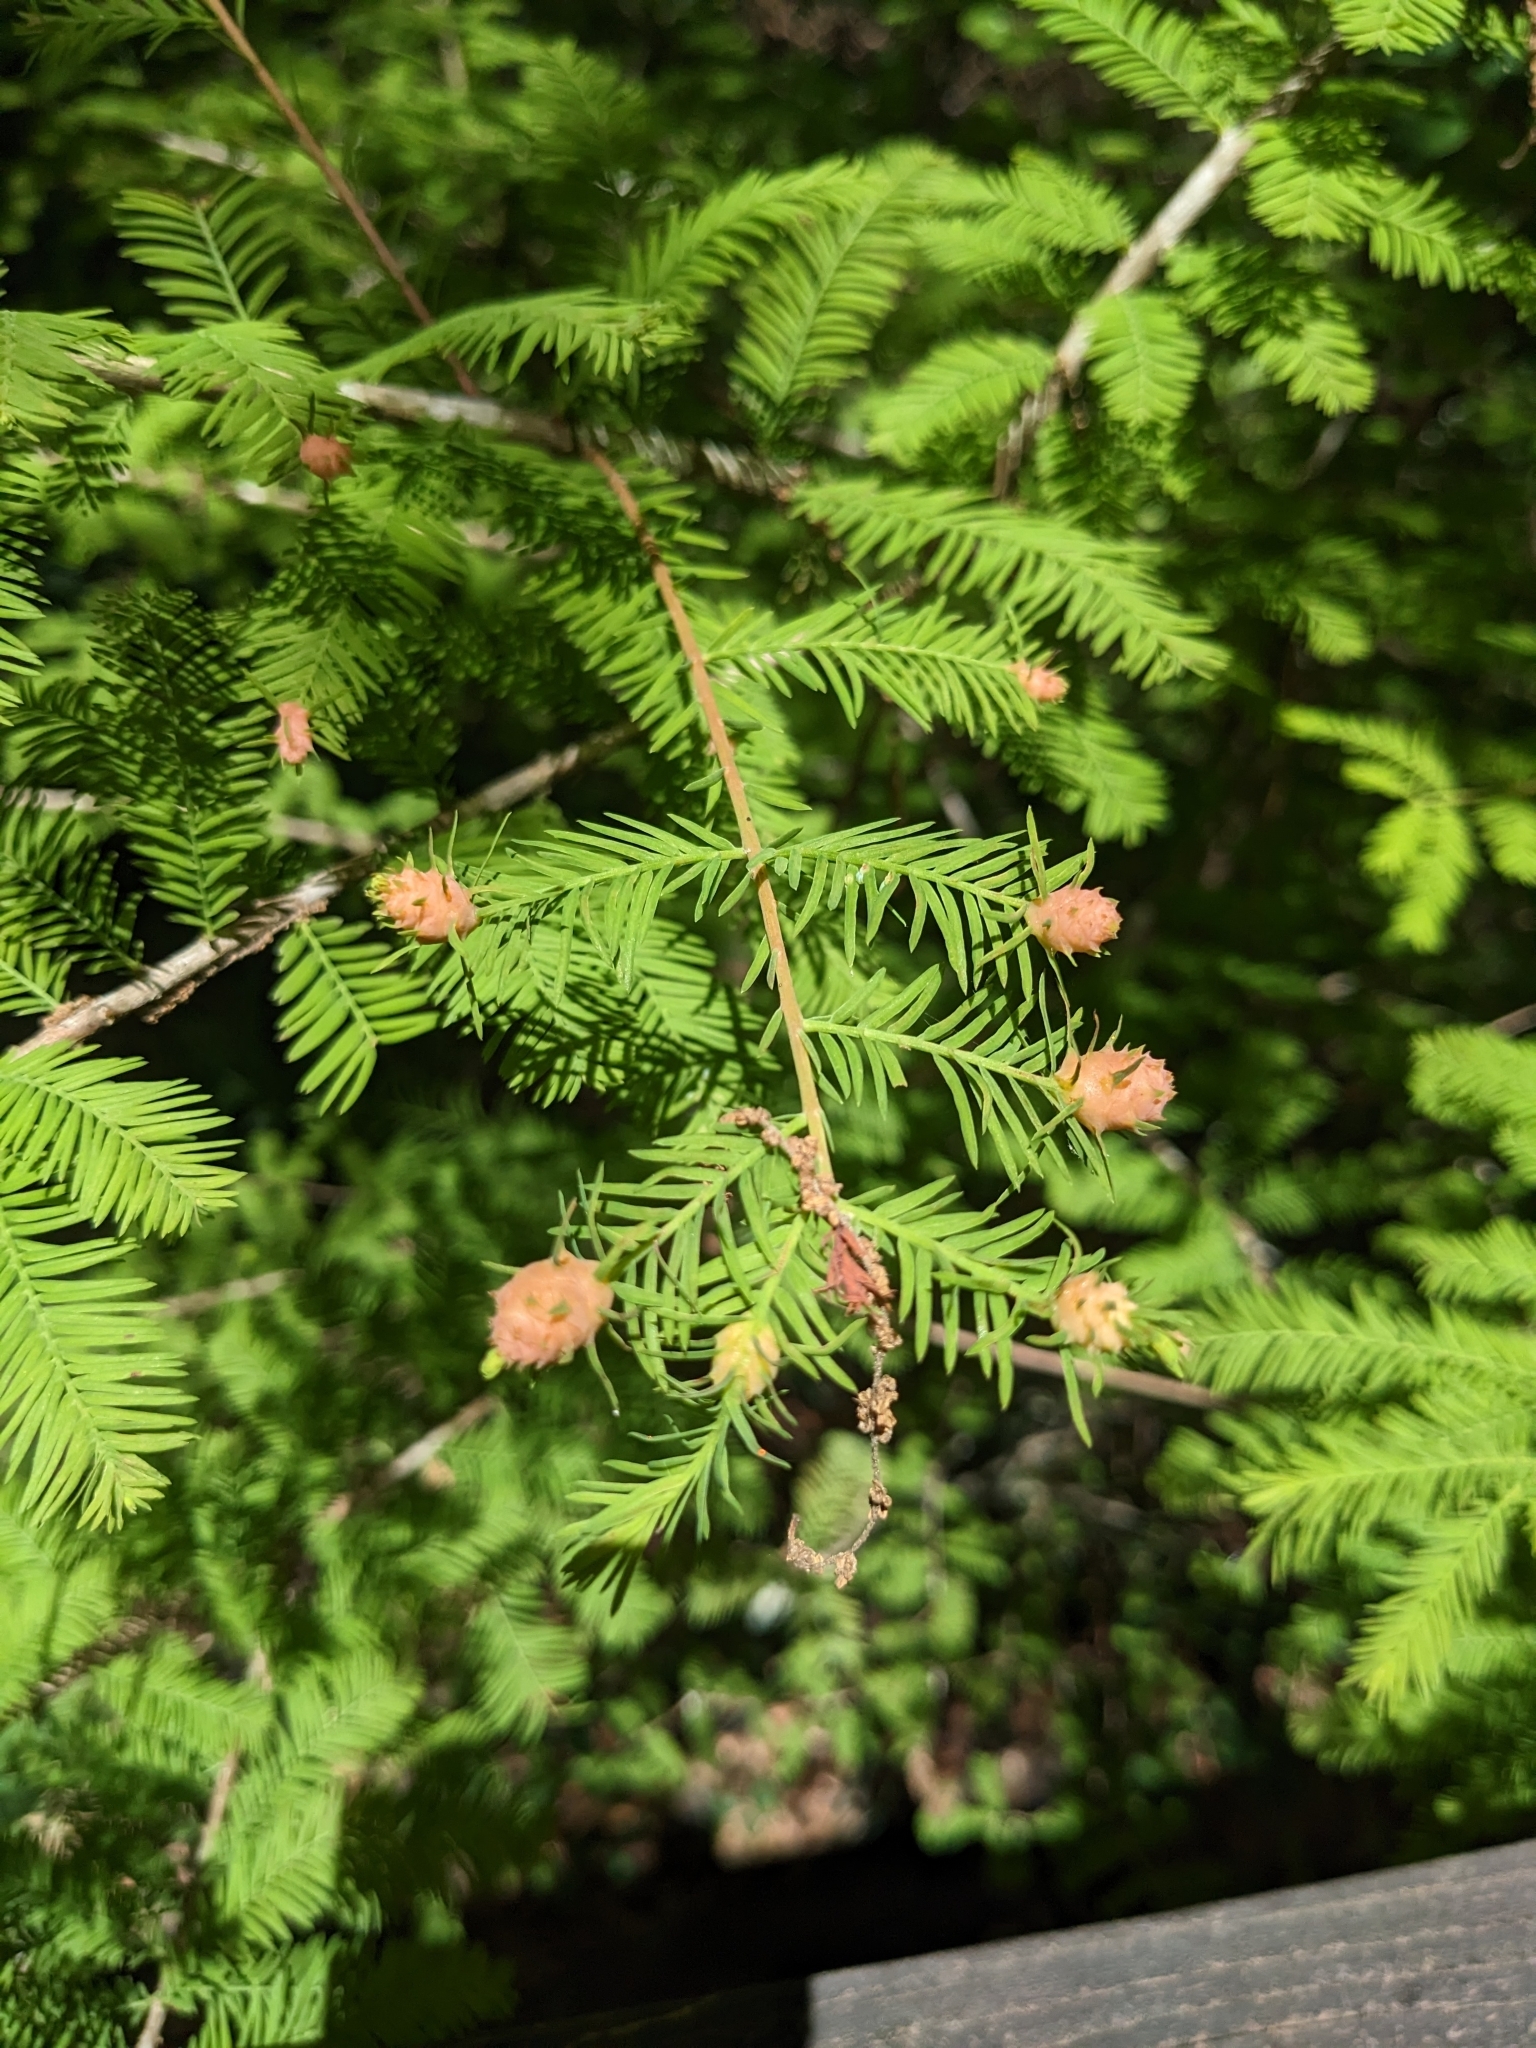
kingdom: Animalia
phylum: Arthropoda
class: Insecta
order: Diptera
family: Cecidomyiidae
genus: Taxodiomyia
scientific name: Taxodiomyia cupressiananassa
